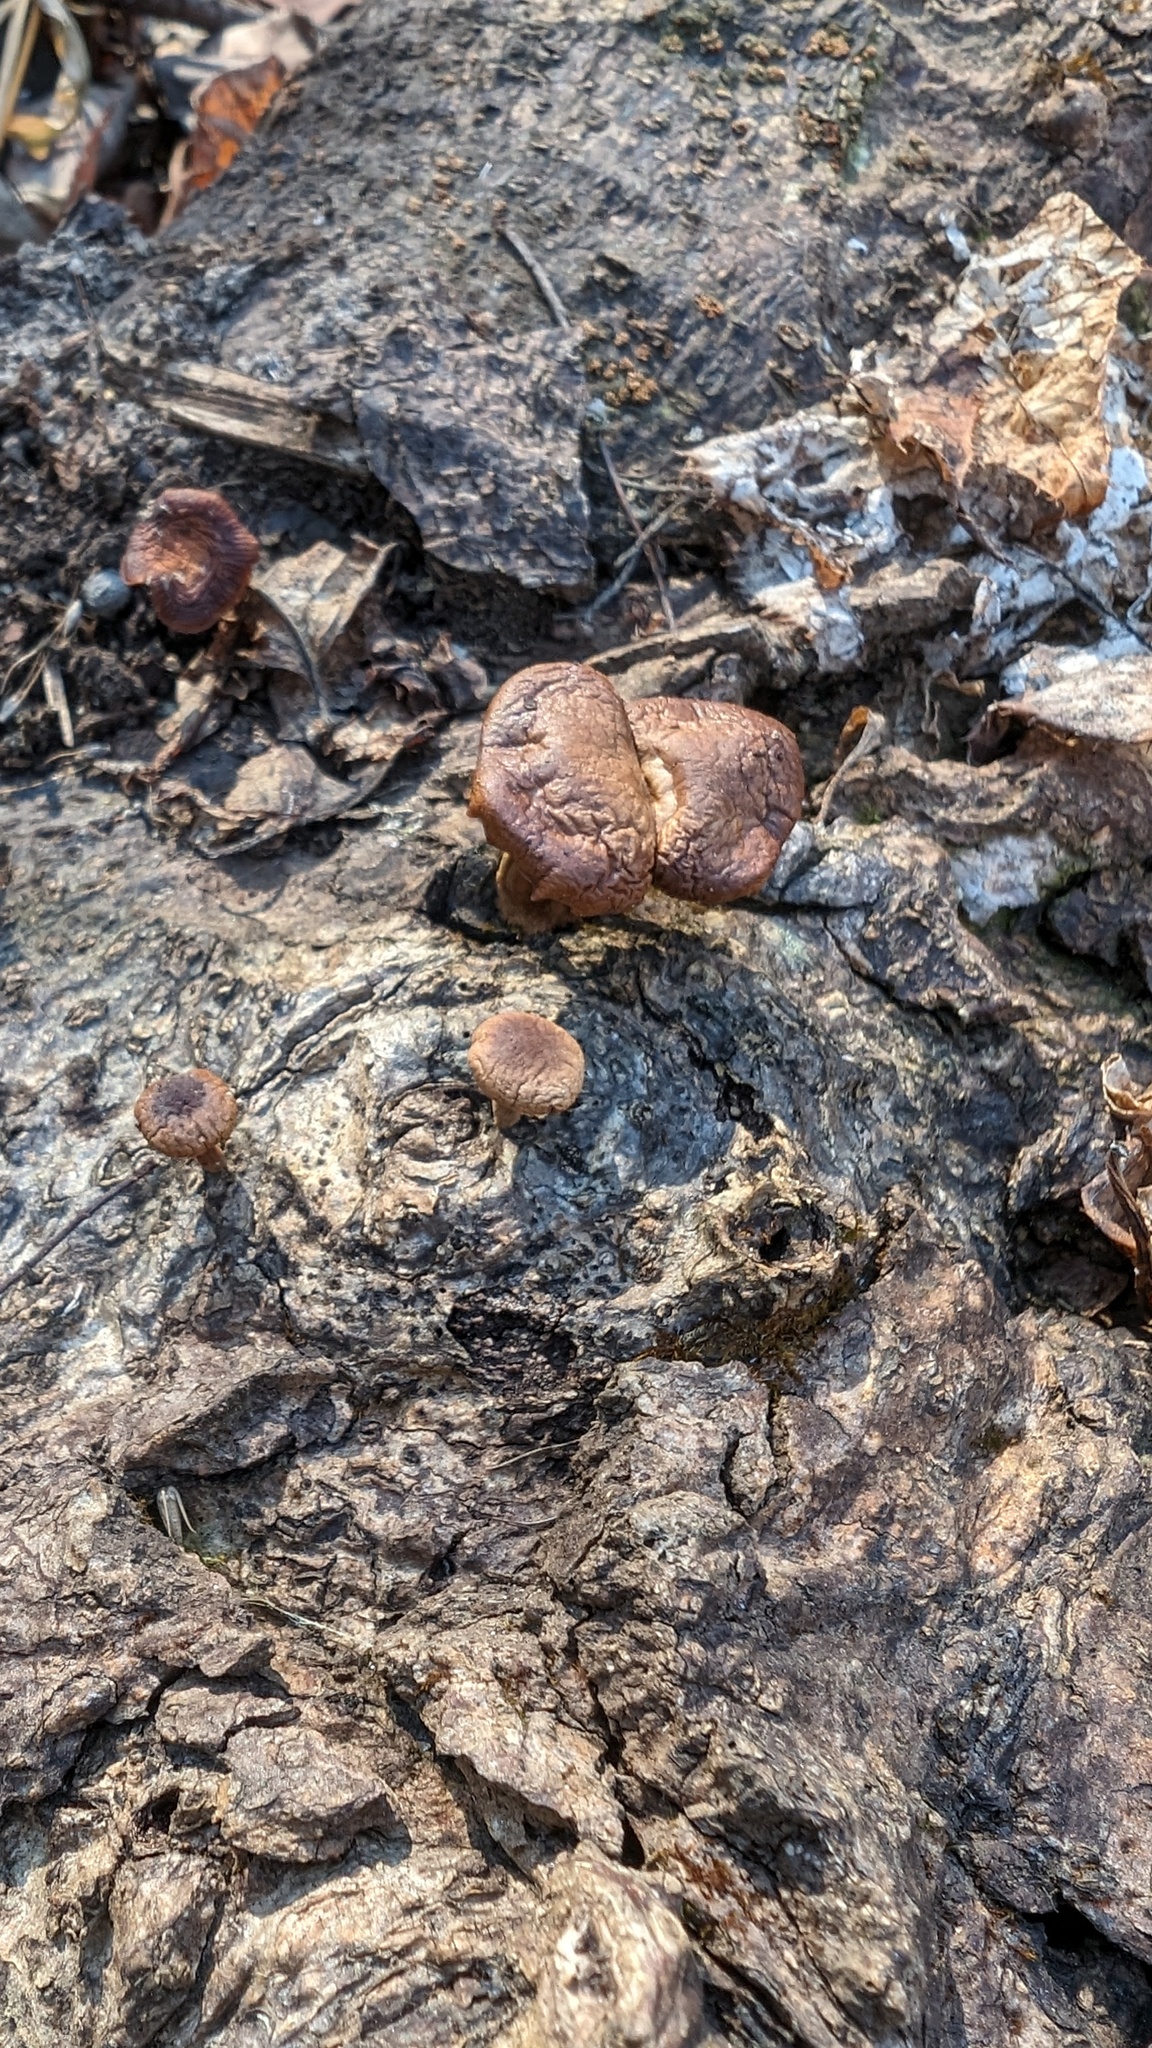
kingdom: Fungi
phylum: Basidiomycota
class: Agaricomycetes
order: Agaricales
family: Physalacriaceae
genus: Flammulina
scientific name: Flammulina velutipes
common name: Velvet shank
